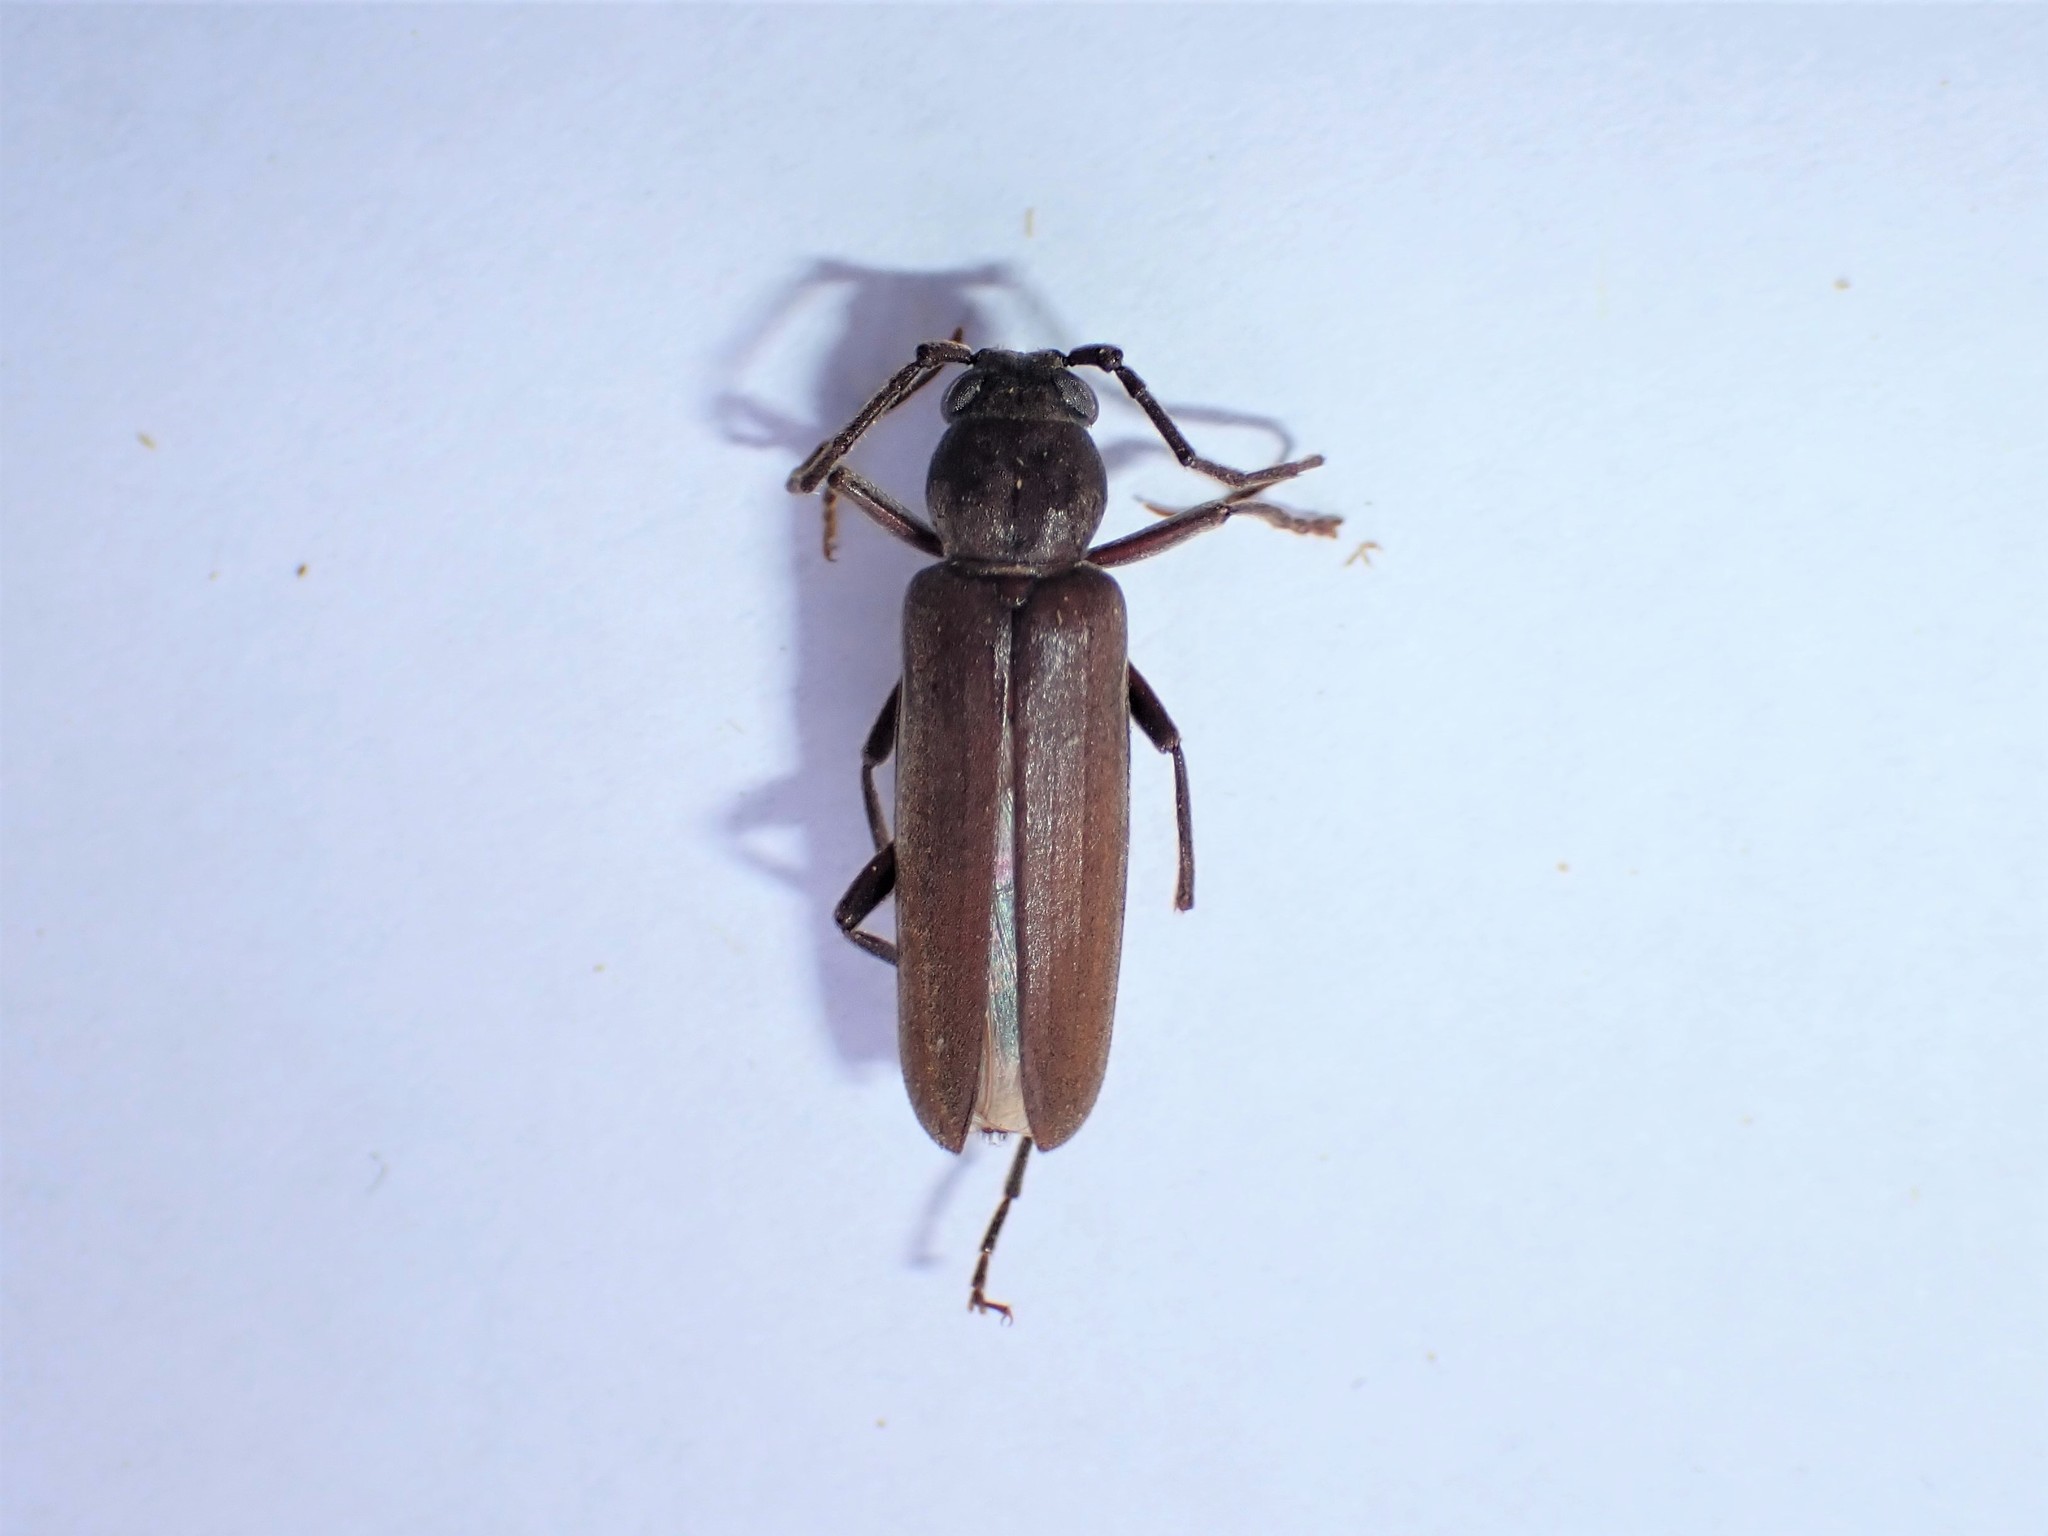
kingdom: Animalia
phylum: Arthropoda
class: Insecta
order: Coleoptera
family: Cerambycidae
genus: Arhopalus
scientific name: Arhopalus ferus
